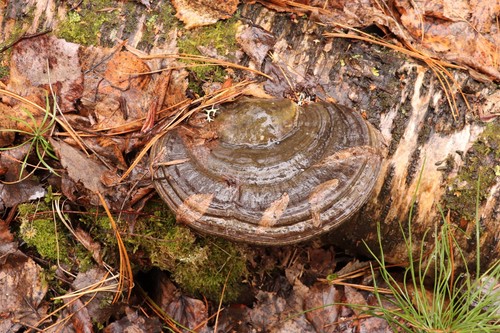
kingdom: Fungi
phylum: Basidiomycota
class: Agaricomycetes
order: Polyporales
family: Polyporaceae
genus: Fomes
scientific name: Fomes fomentarius
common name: Hoof fungus
